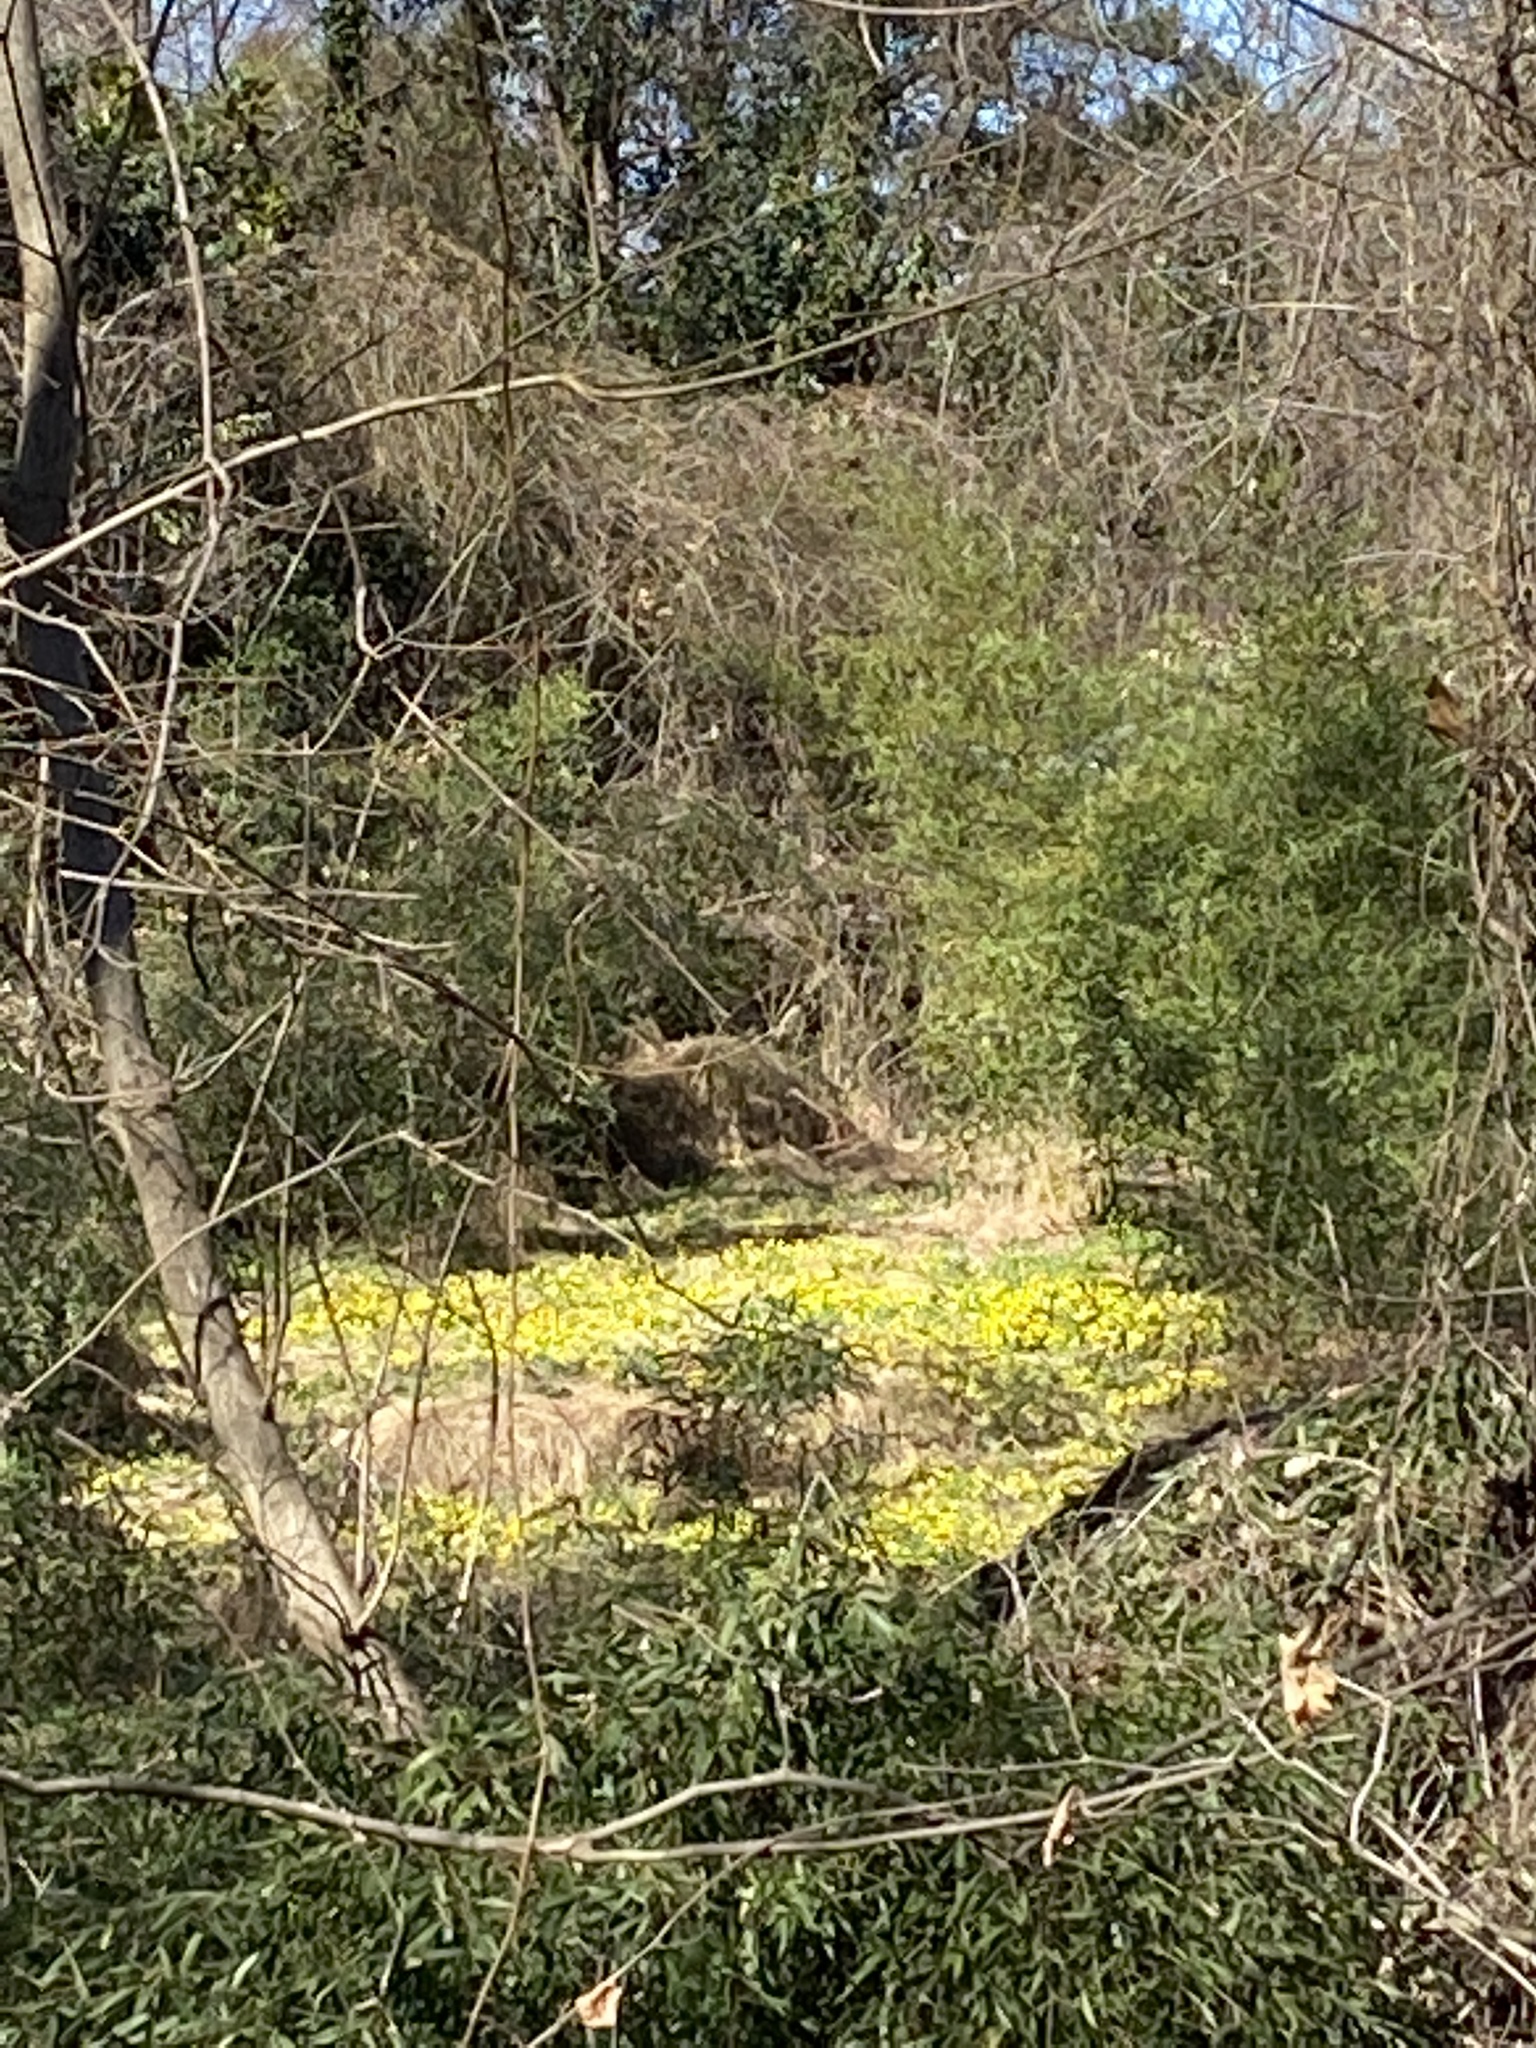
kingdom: Plantae
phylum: Tracheophyta
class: Magnoliopsida
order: Ranunculales
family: Ranunculaceae
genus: Ficaria
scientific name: Ficaria verna
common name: Lesser celandine
